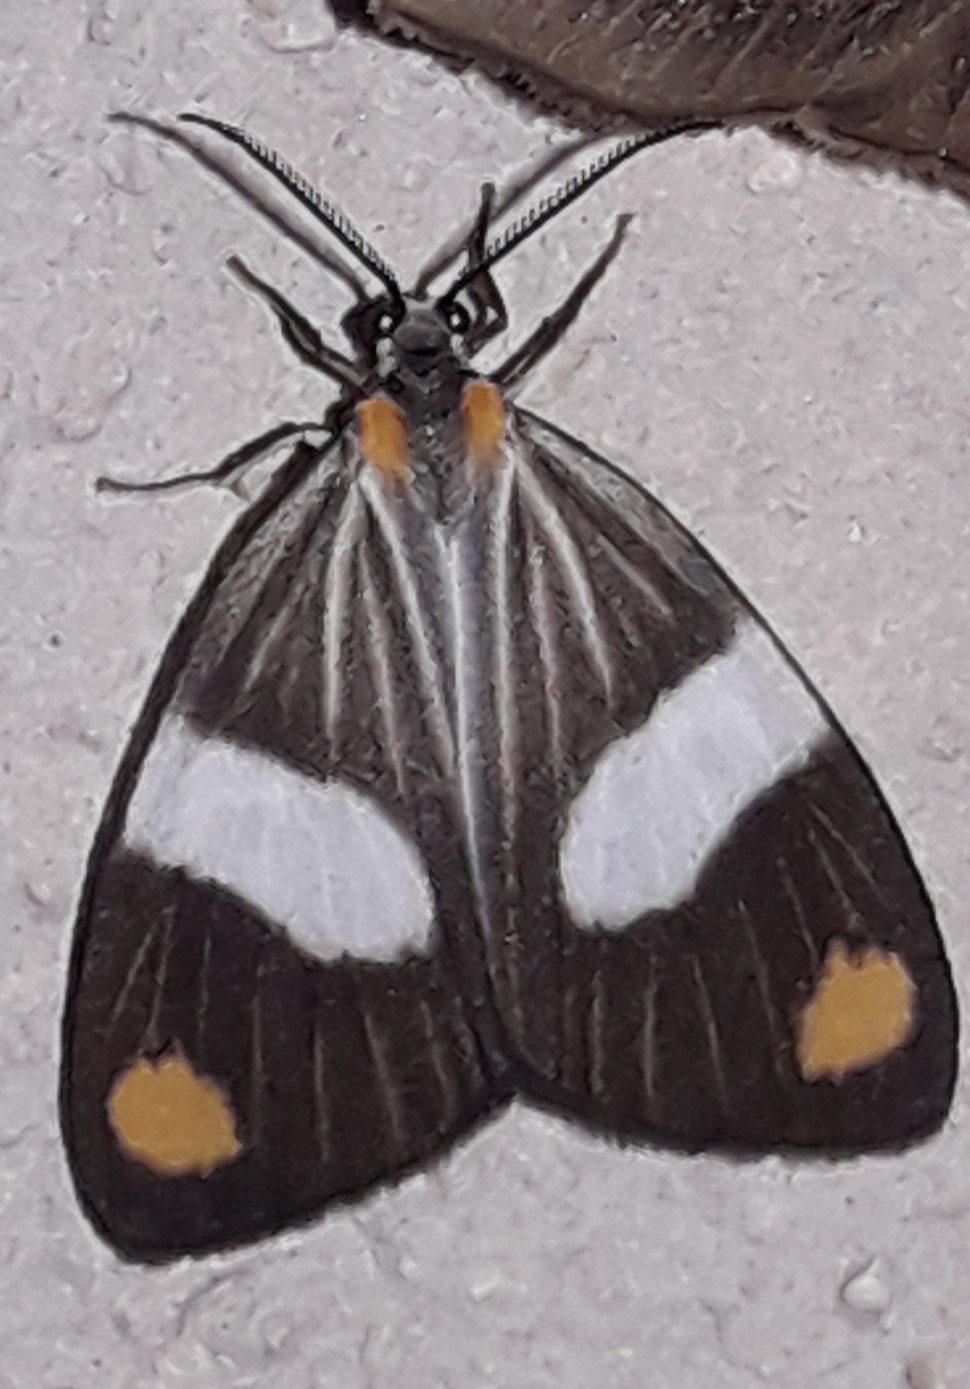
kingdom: Animalia
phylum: Arthropoda
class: Insecta
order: Lepidoptera
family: Notodontidae
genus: Nebulosa
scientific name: Nebulosa erymas
